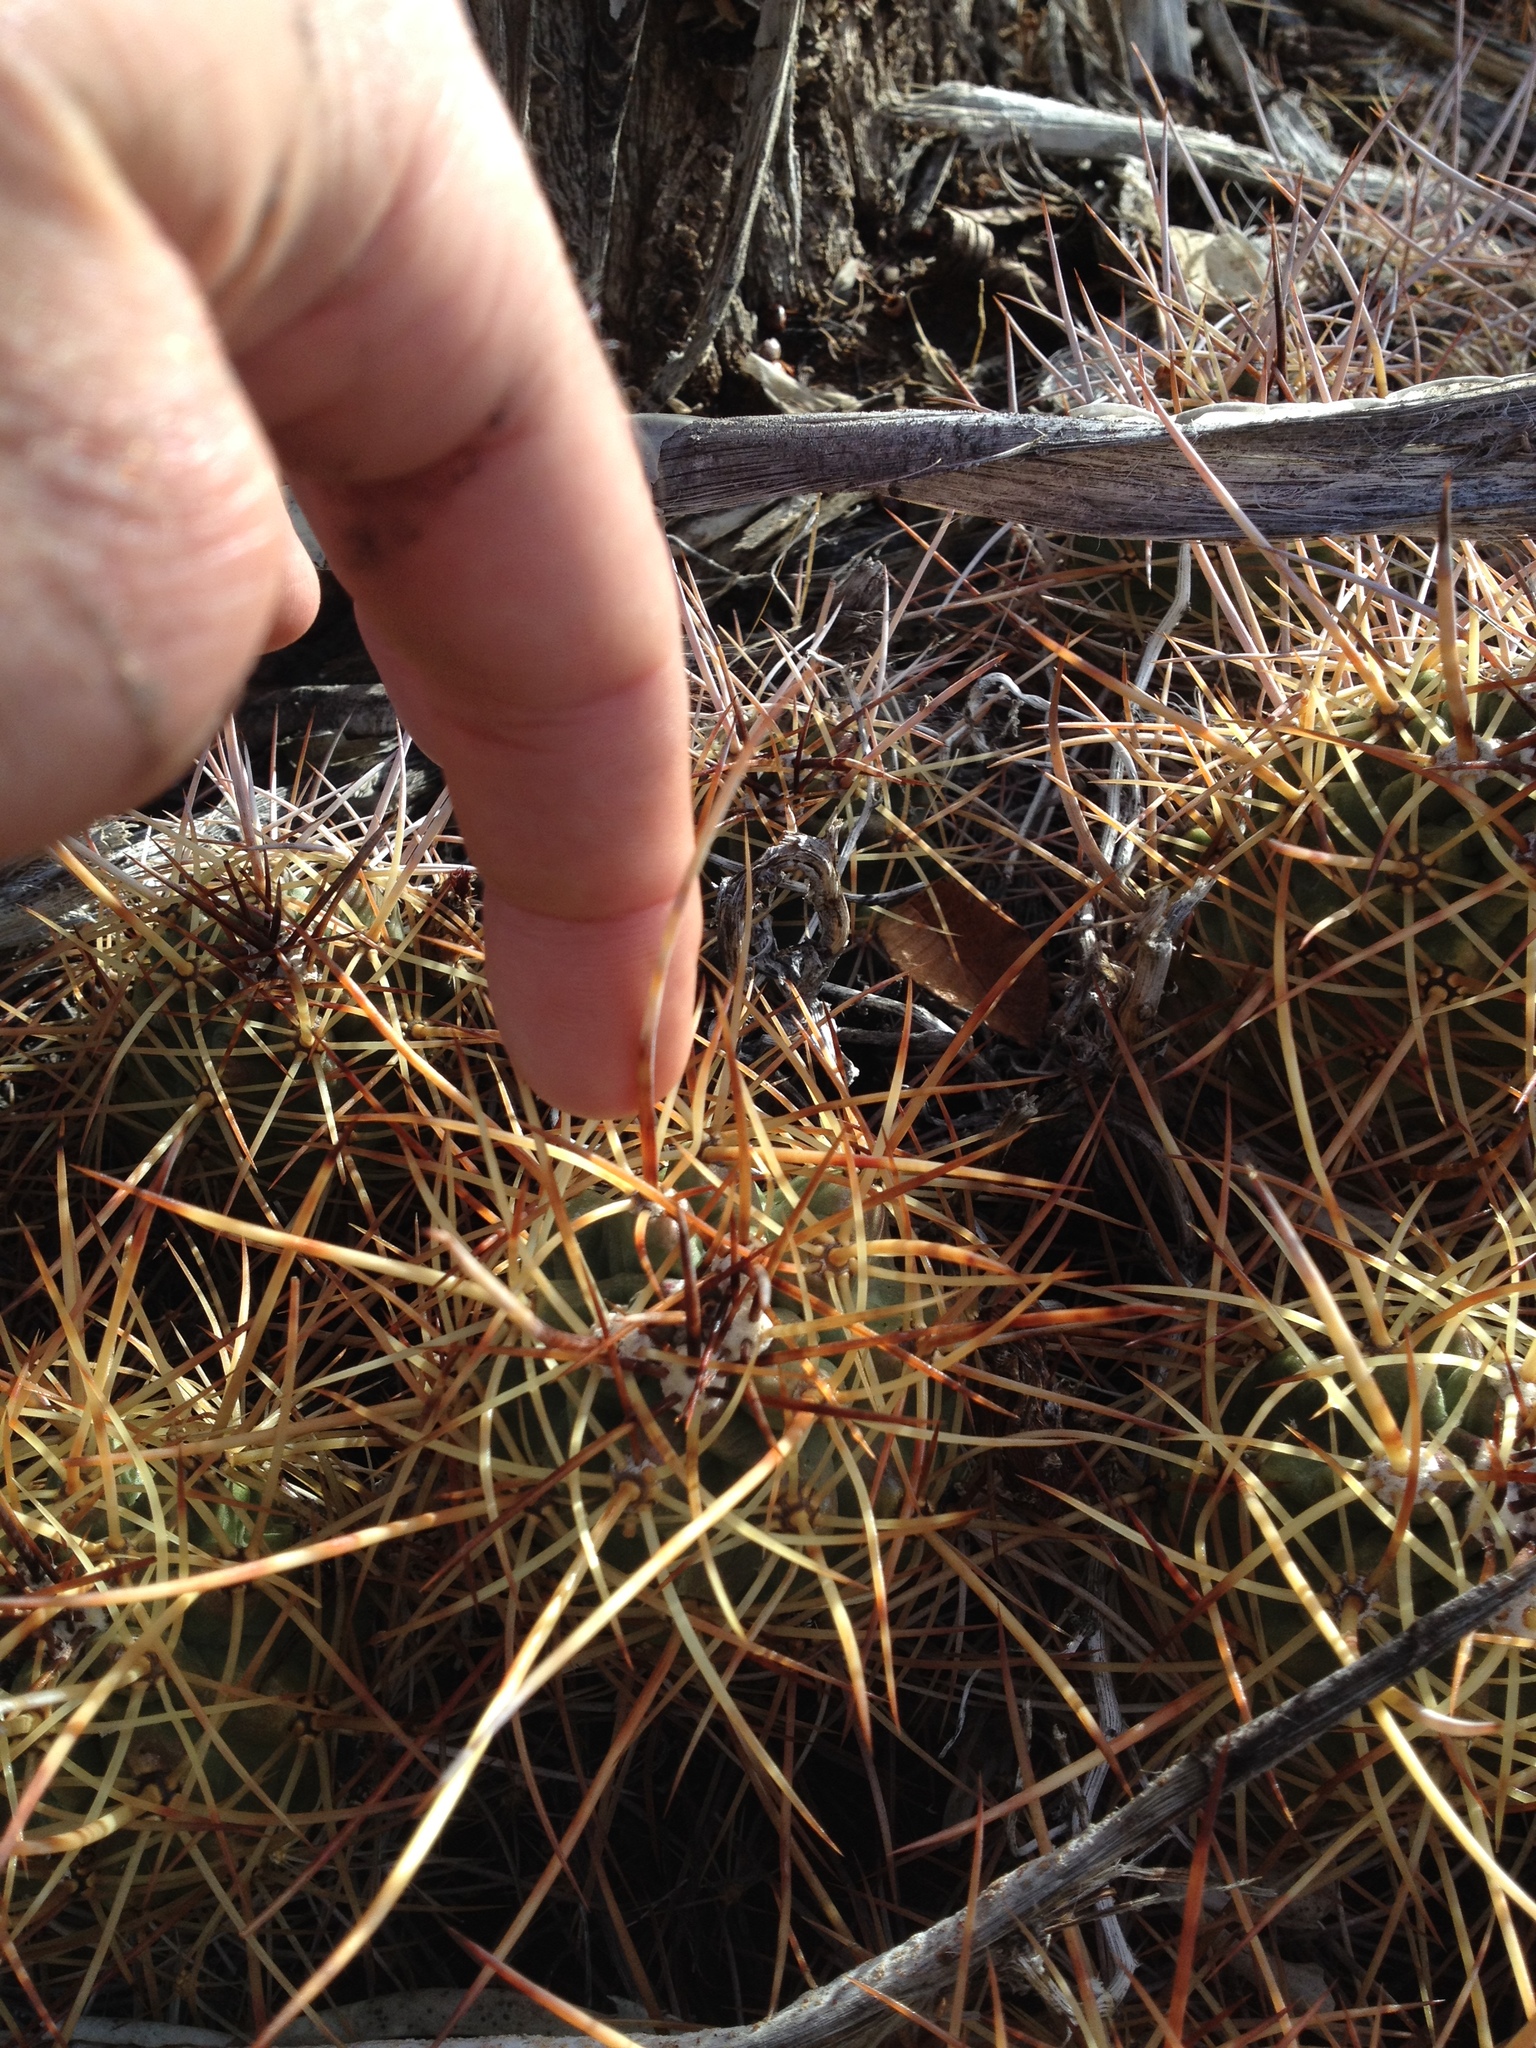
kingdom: Plantae
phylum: Tracheophyta
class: Magnoliopsida
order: Caryophyllales
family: Cactaceae
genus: Echinocereus
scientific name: Echinocereus triglochidiatus
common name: Claretcup hedgehog
